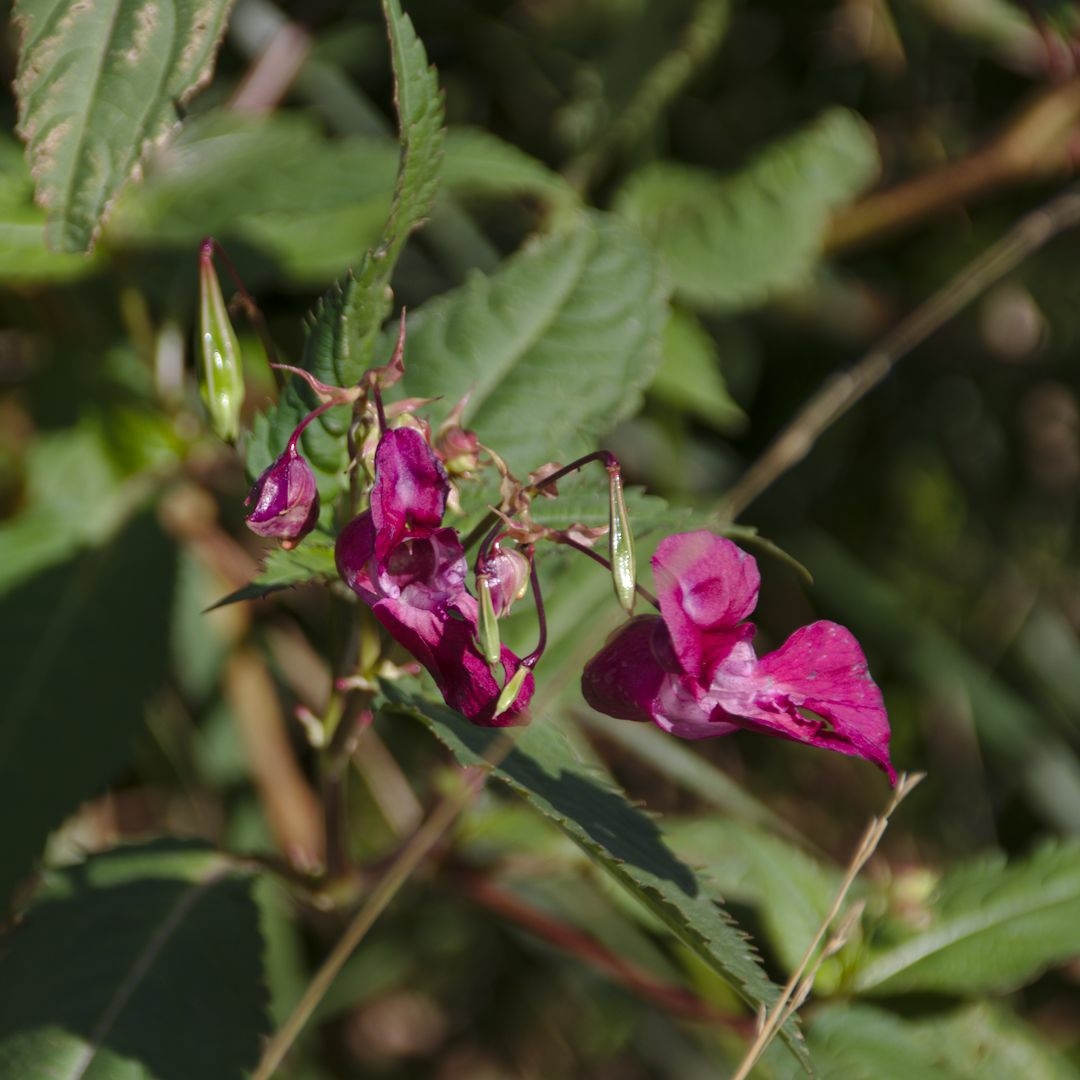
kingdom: Plantae
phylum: Tracheophyta
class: Magnoliopsida
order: Ericales
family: Balsaminaceae
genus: Impatiens
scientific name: Impatiens glandulifera
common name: Himalayan balsam
